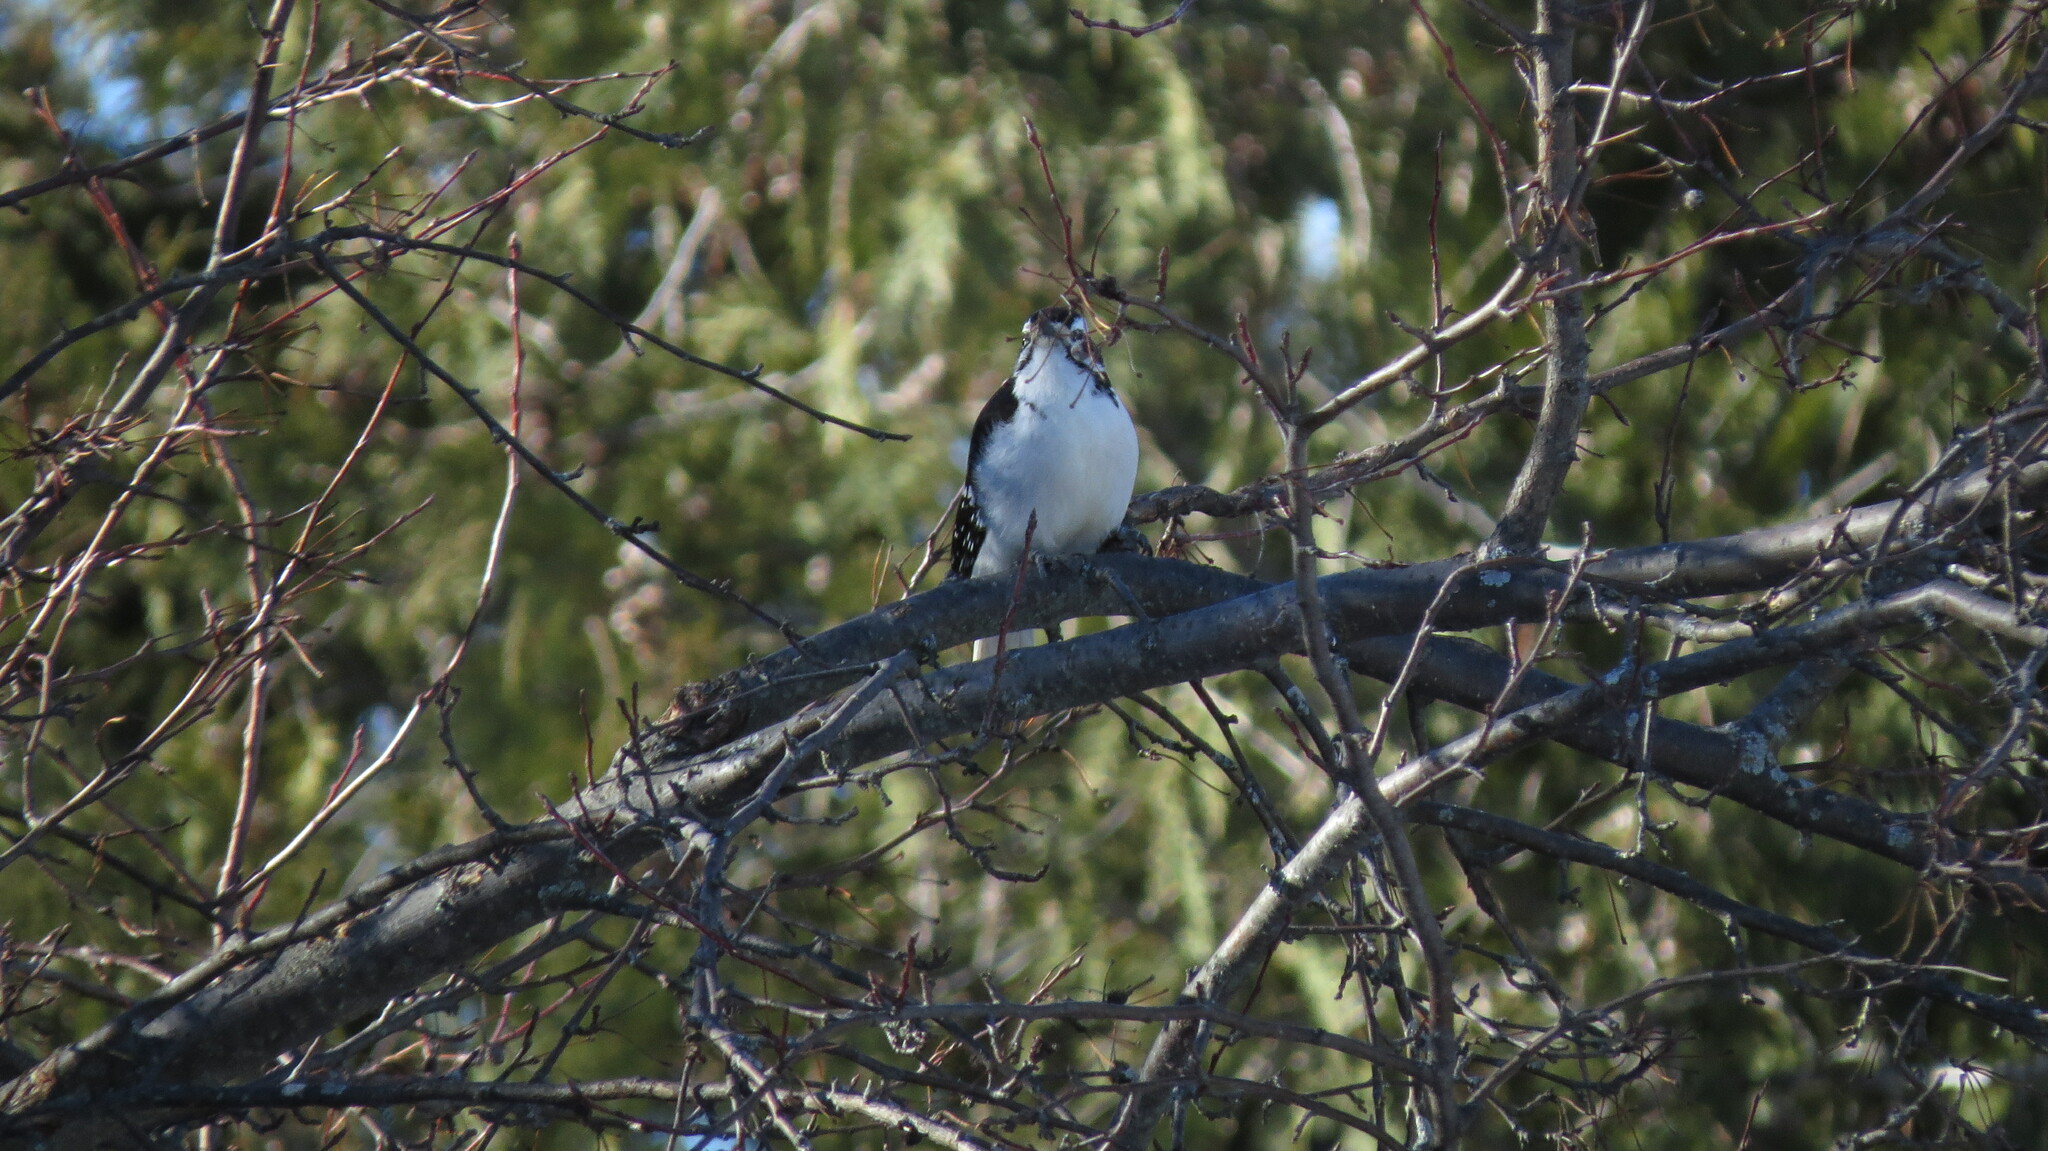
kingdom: Animalia
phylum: Chordata
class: Aves
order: Piciformes
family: Picidae
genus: Leuconotopicus
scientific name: Leuconotopicus villosus
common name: Hairy woodpecker
